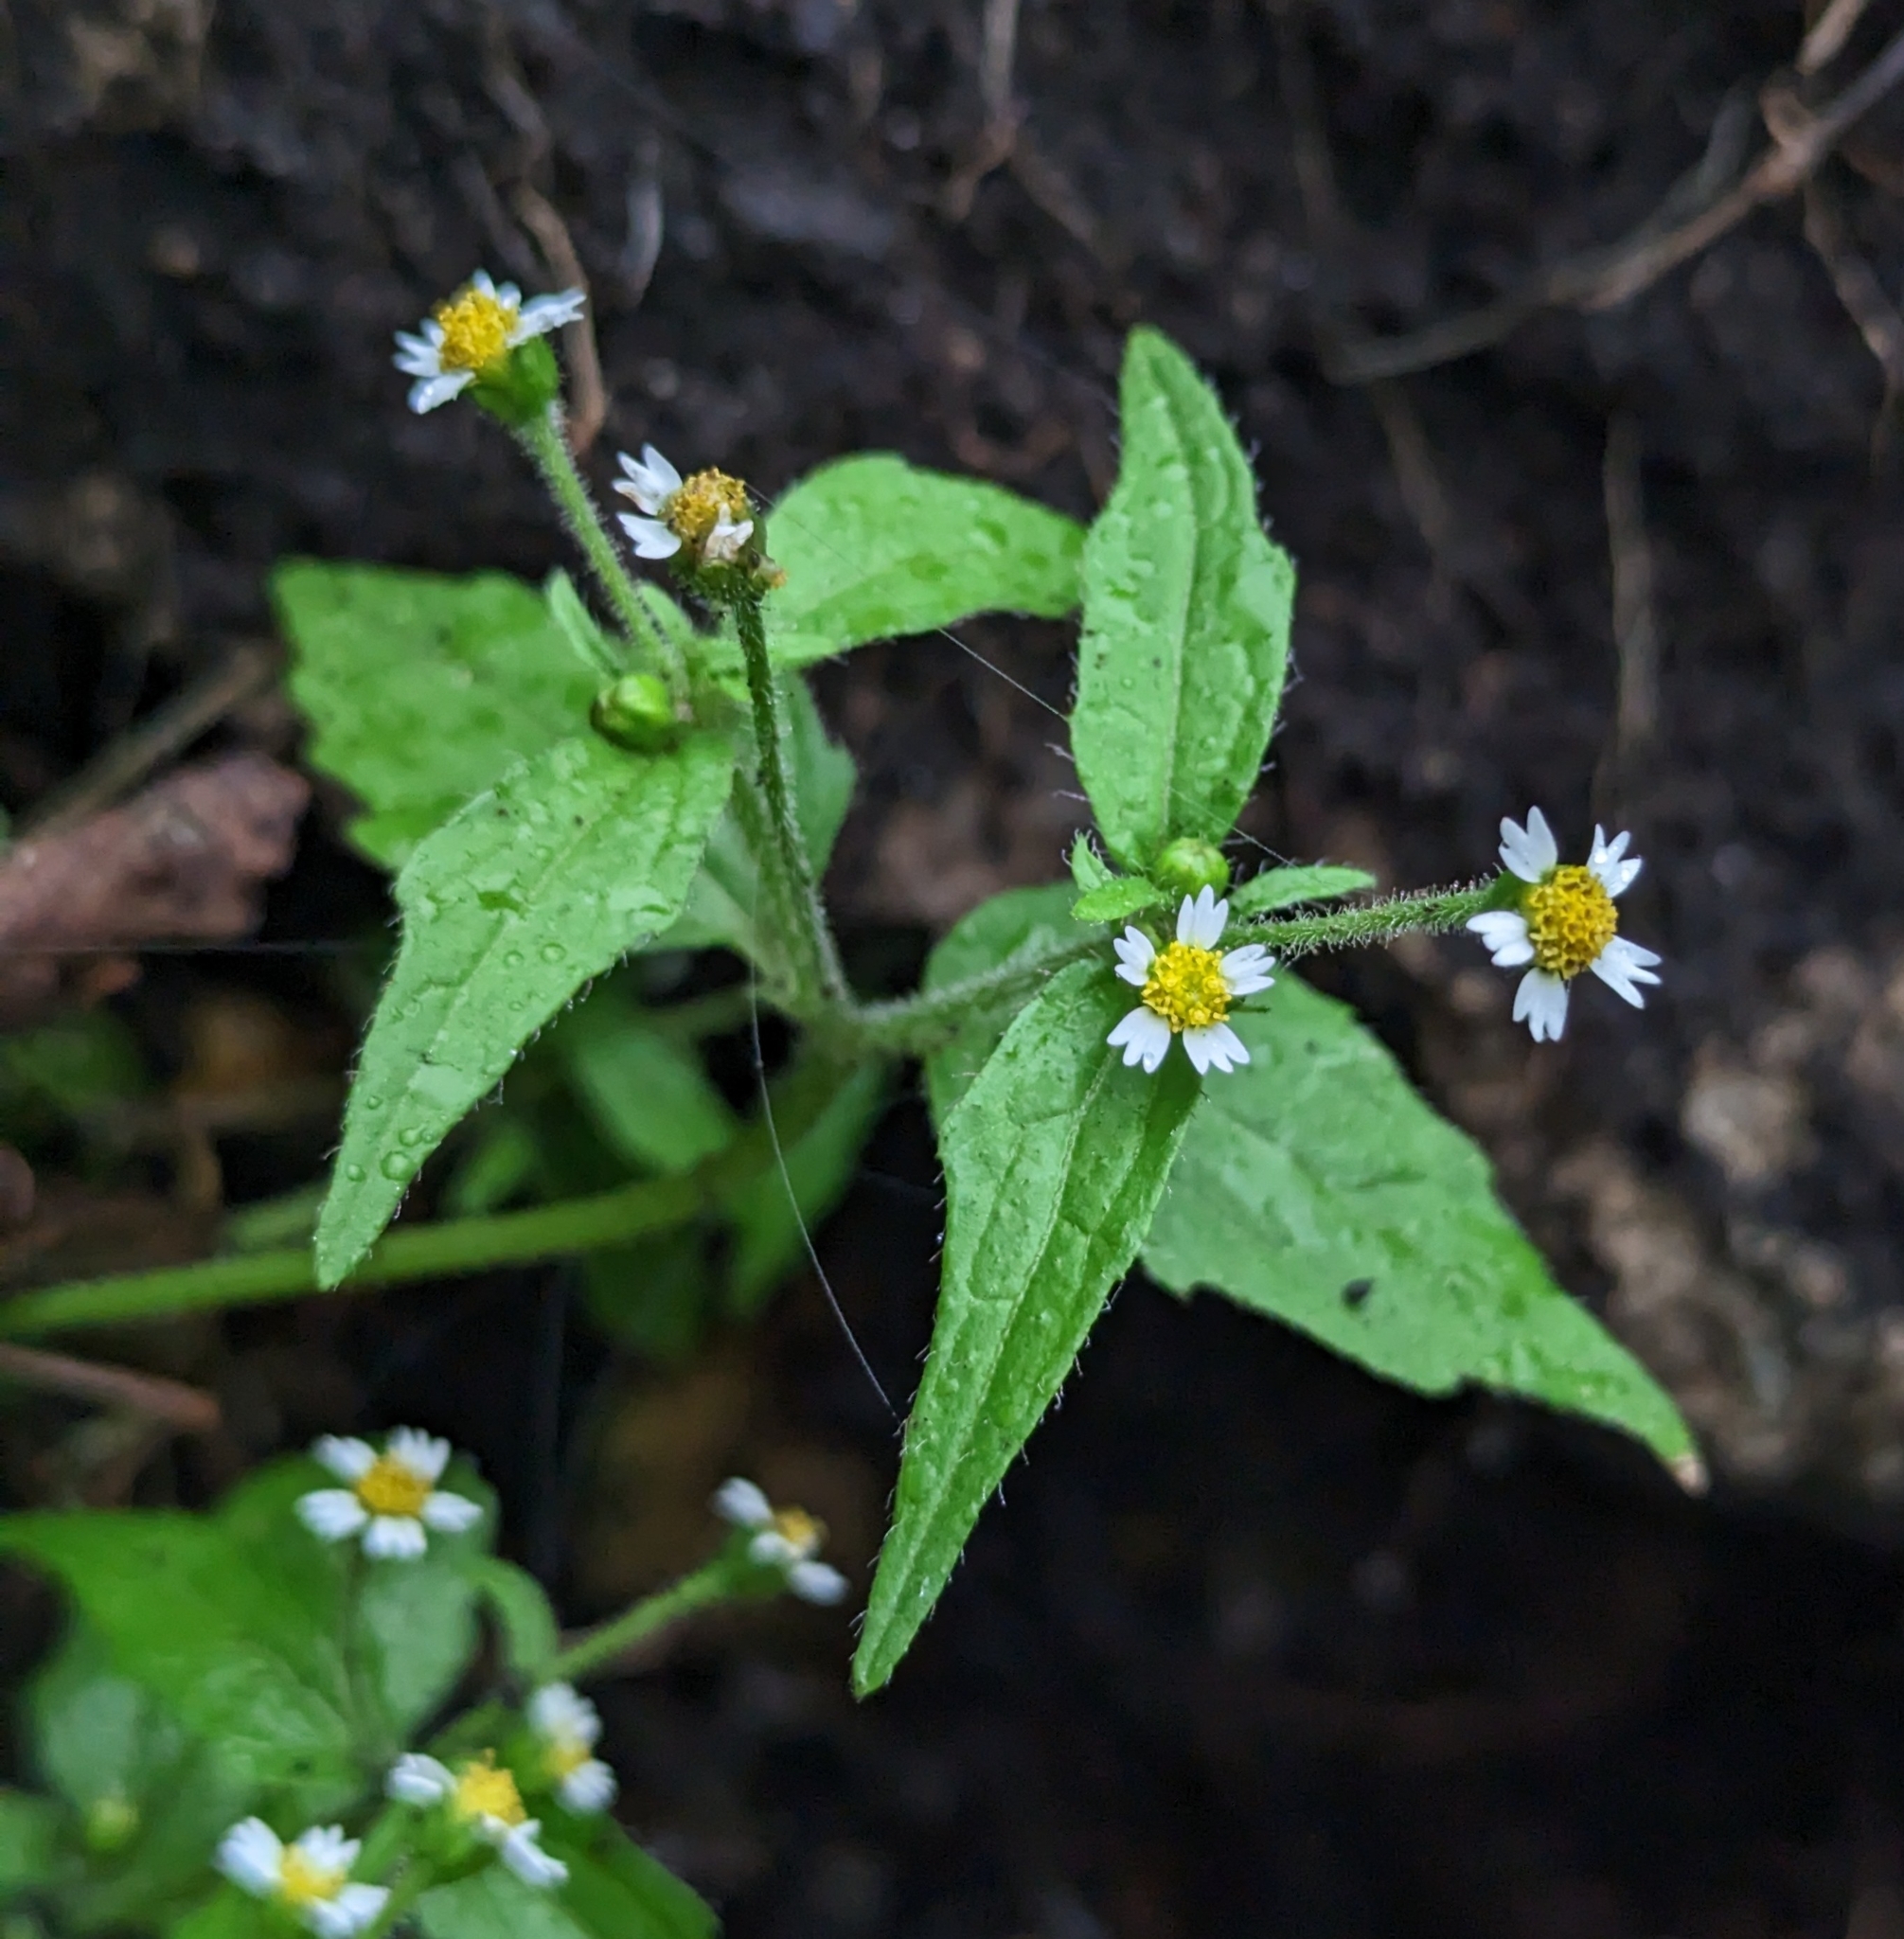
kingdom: Plantae
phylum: Tracheophyta
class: Magnoliopsida
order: Asterales
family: Asteraceae
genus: Galinsoga
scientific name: Galinsoga quadriradiata
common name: Shaggy soldier
